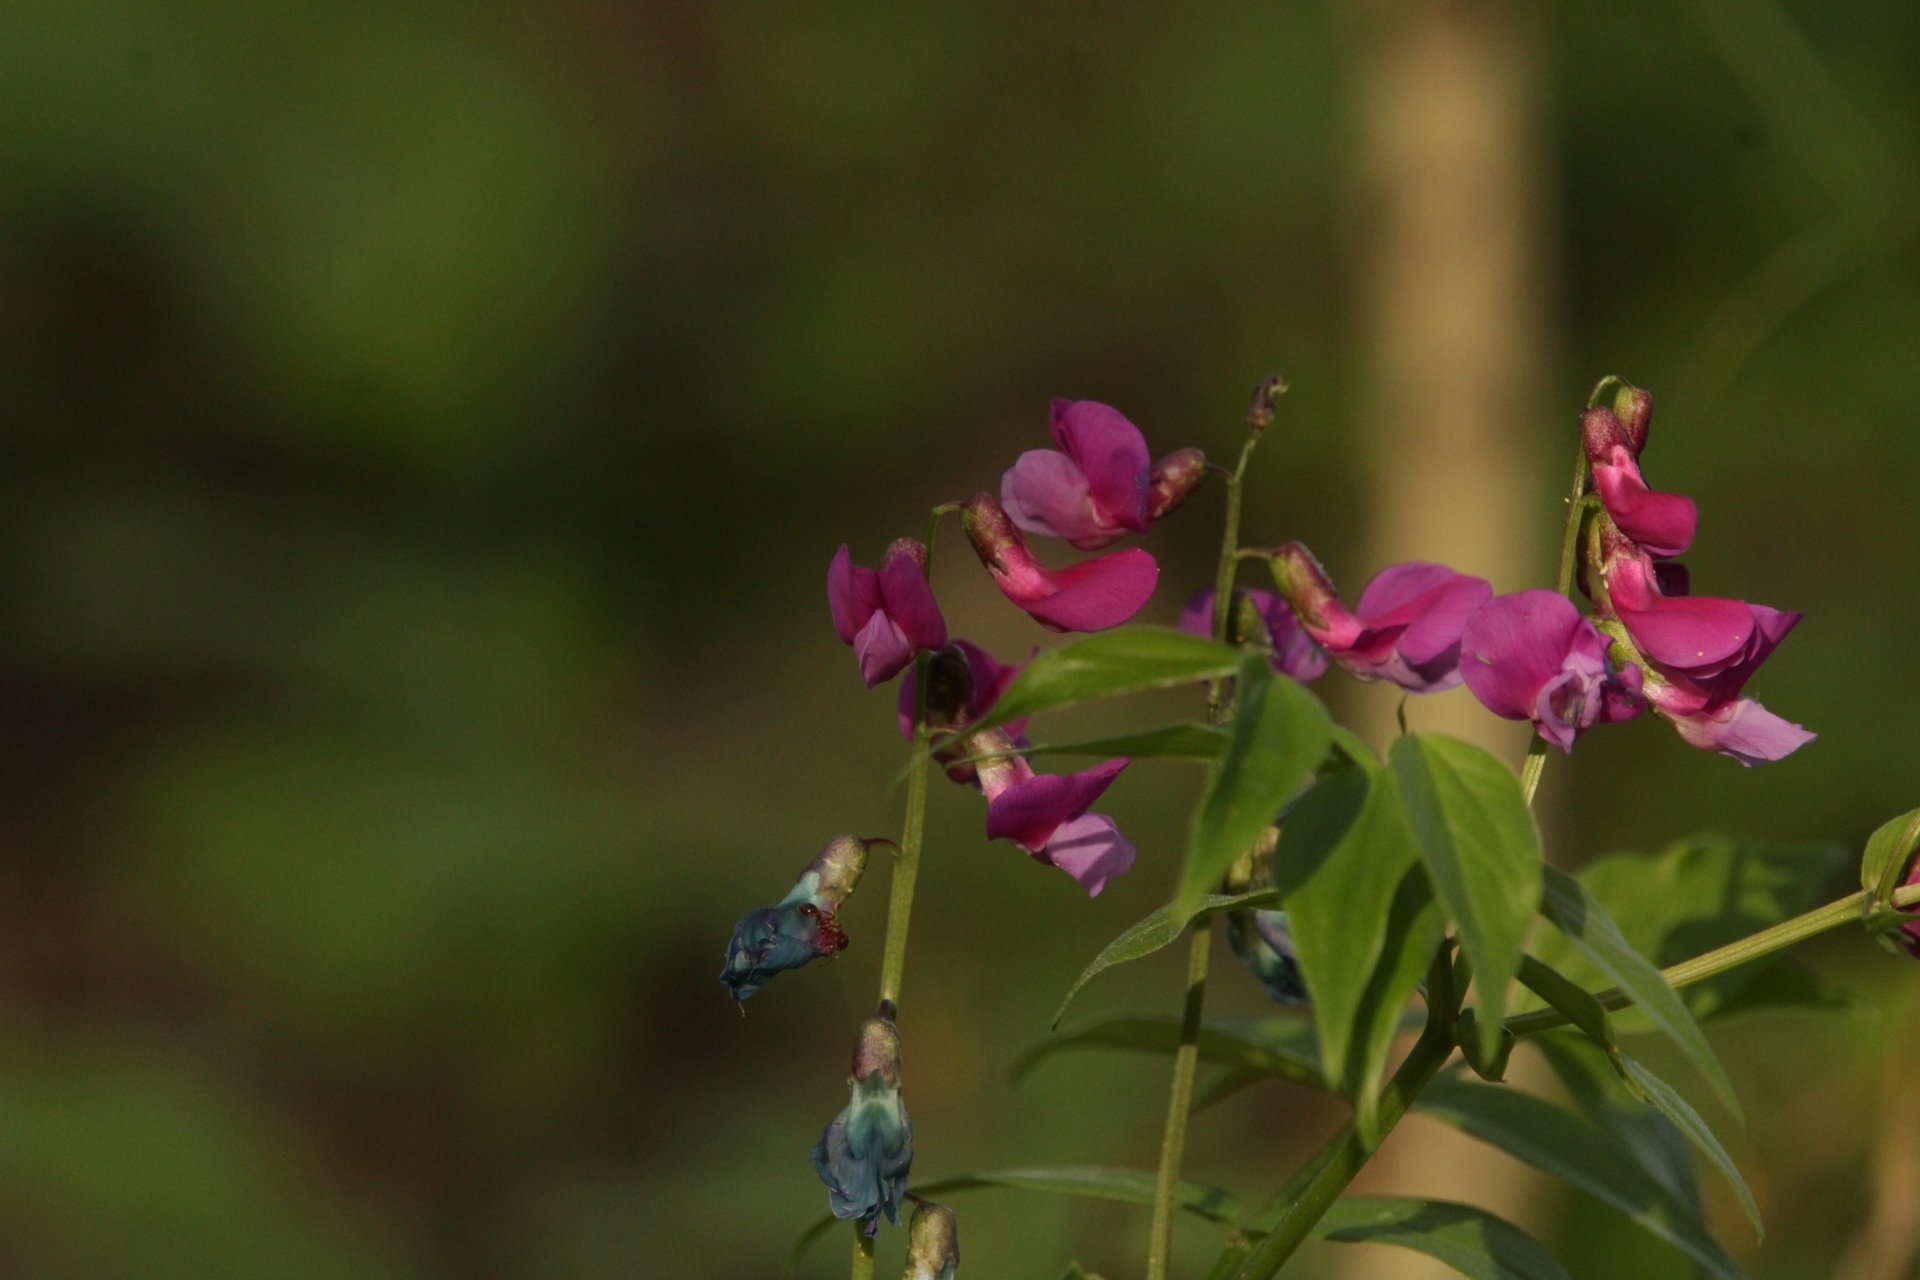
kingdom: Plantae
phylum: Tracheophyta
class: Magnoliopsida
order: Fabales
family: Fabaceae
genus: Lathyrus
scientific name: Lathyrus vernus
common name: Spring pea
